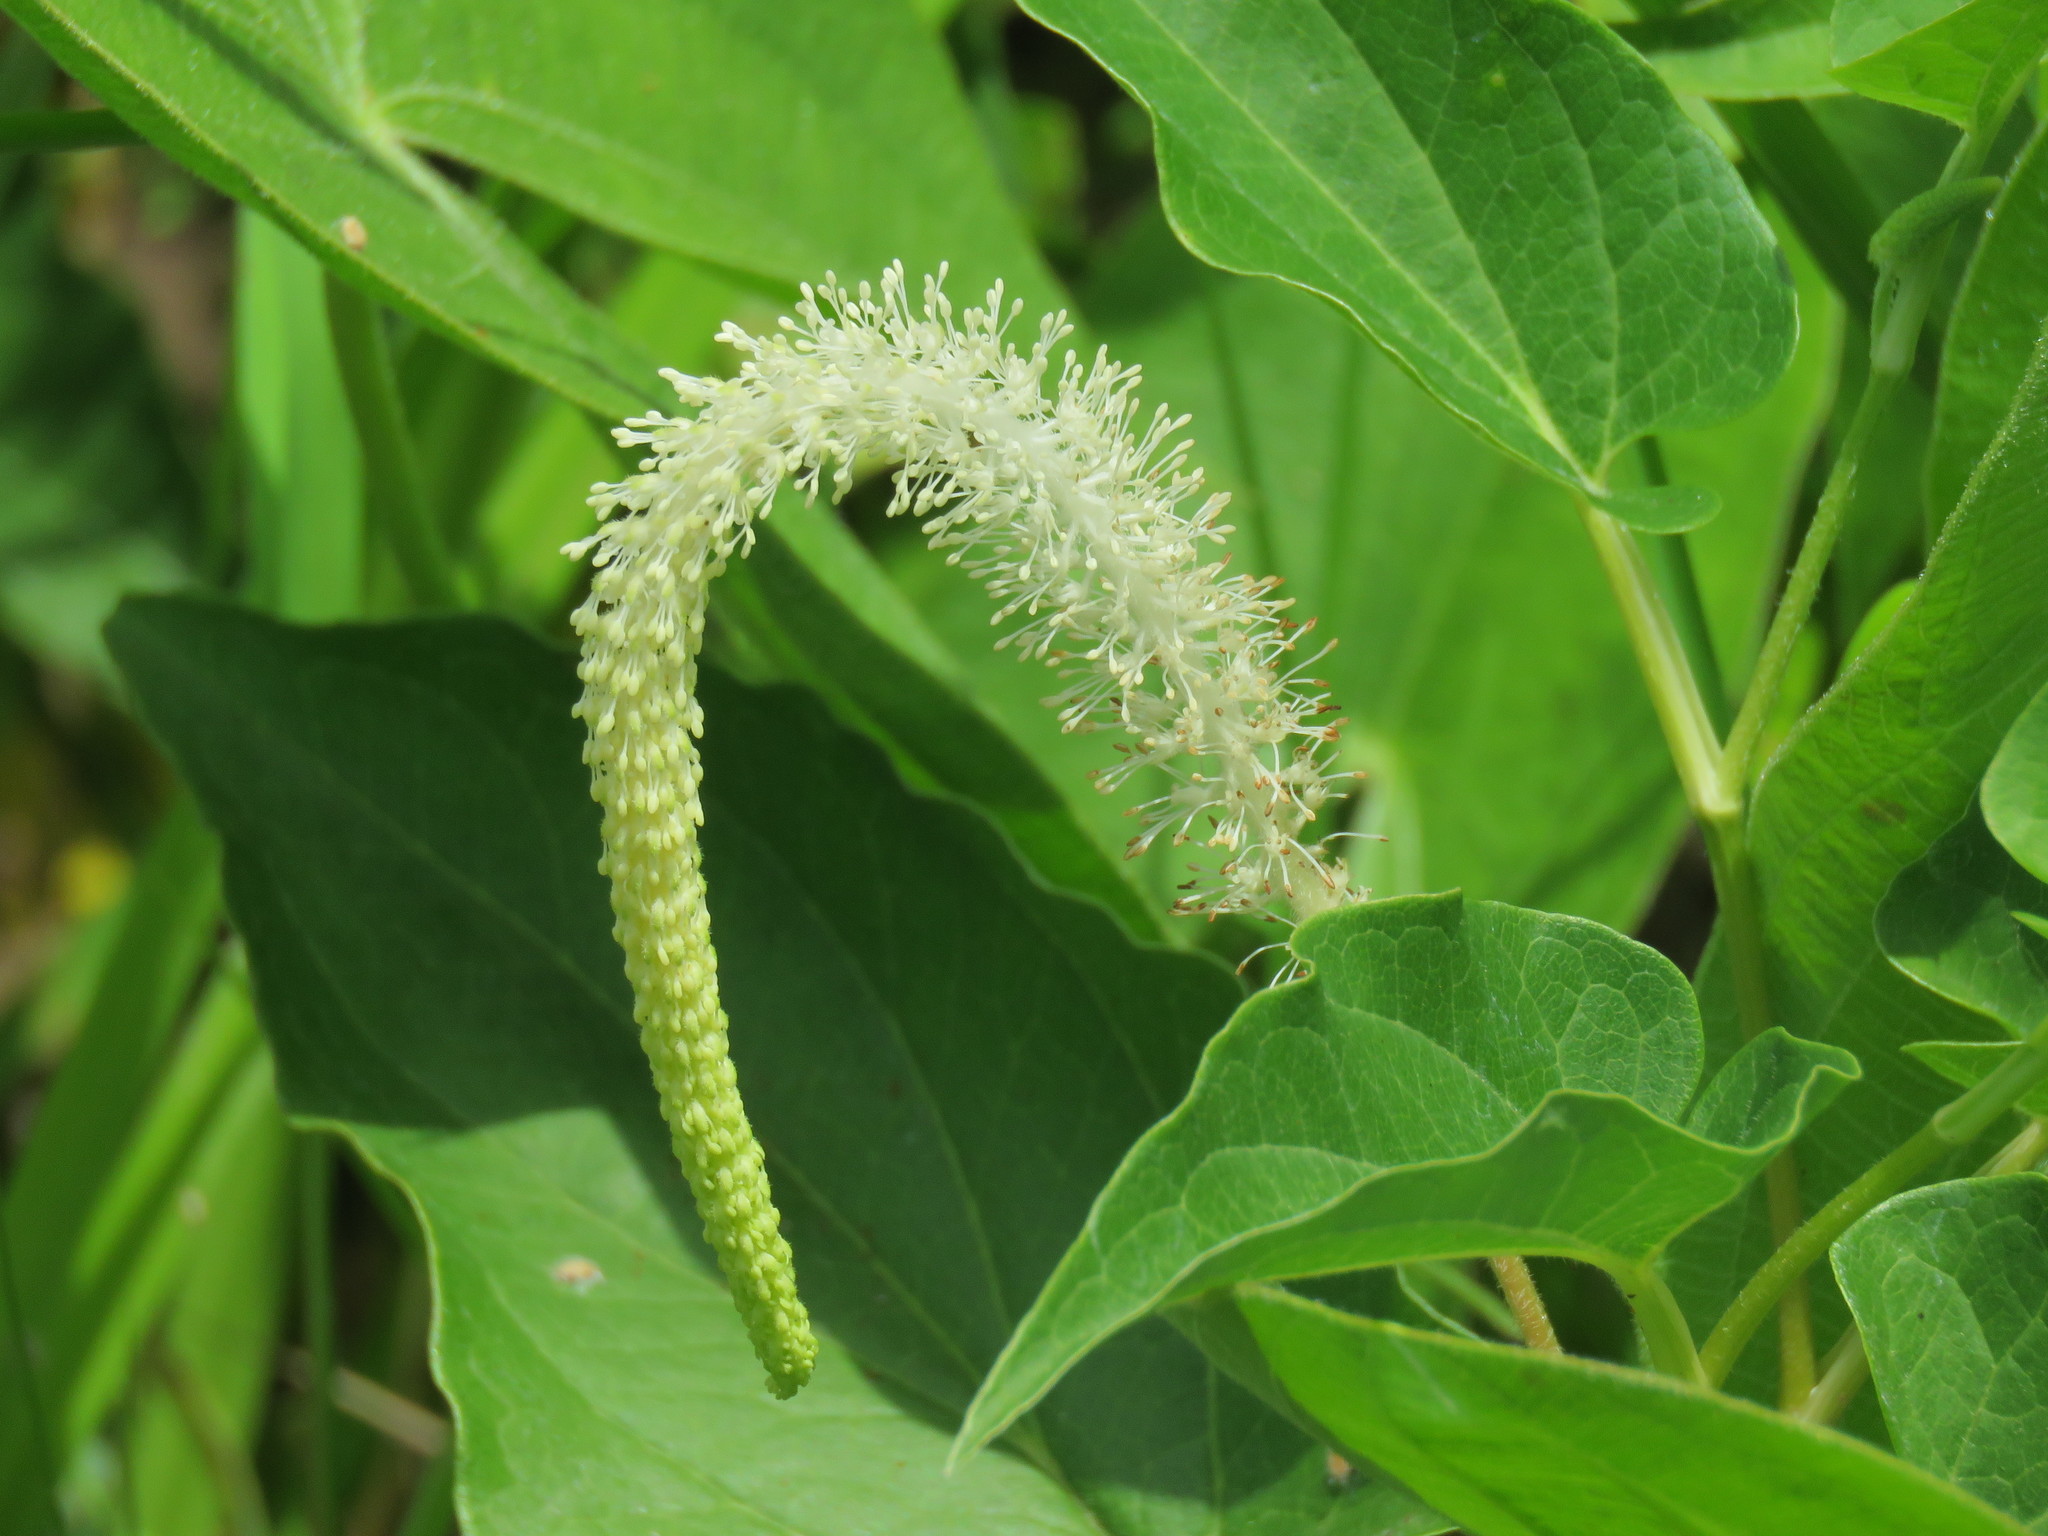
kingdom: Plantae
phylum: Tracheophyta
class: Magnoliopsida
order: Piperales
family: Saururaceae
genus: Saururus
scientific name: Saururus cernuus
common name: Lizard's-tail
